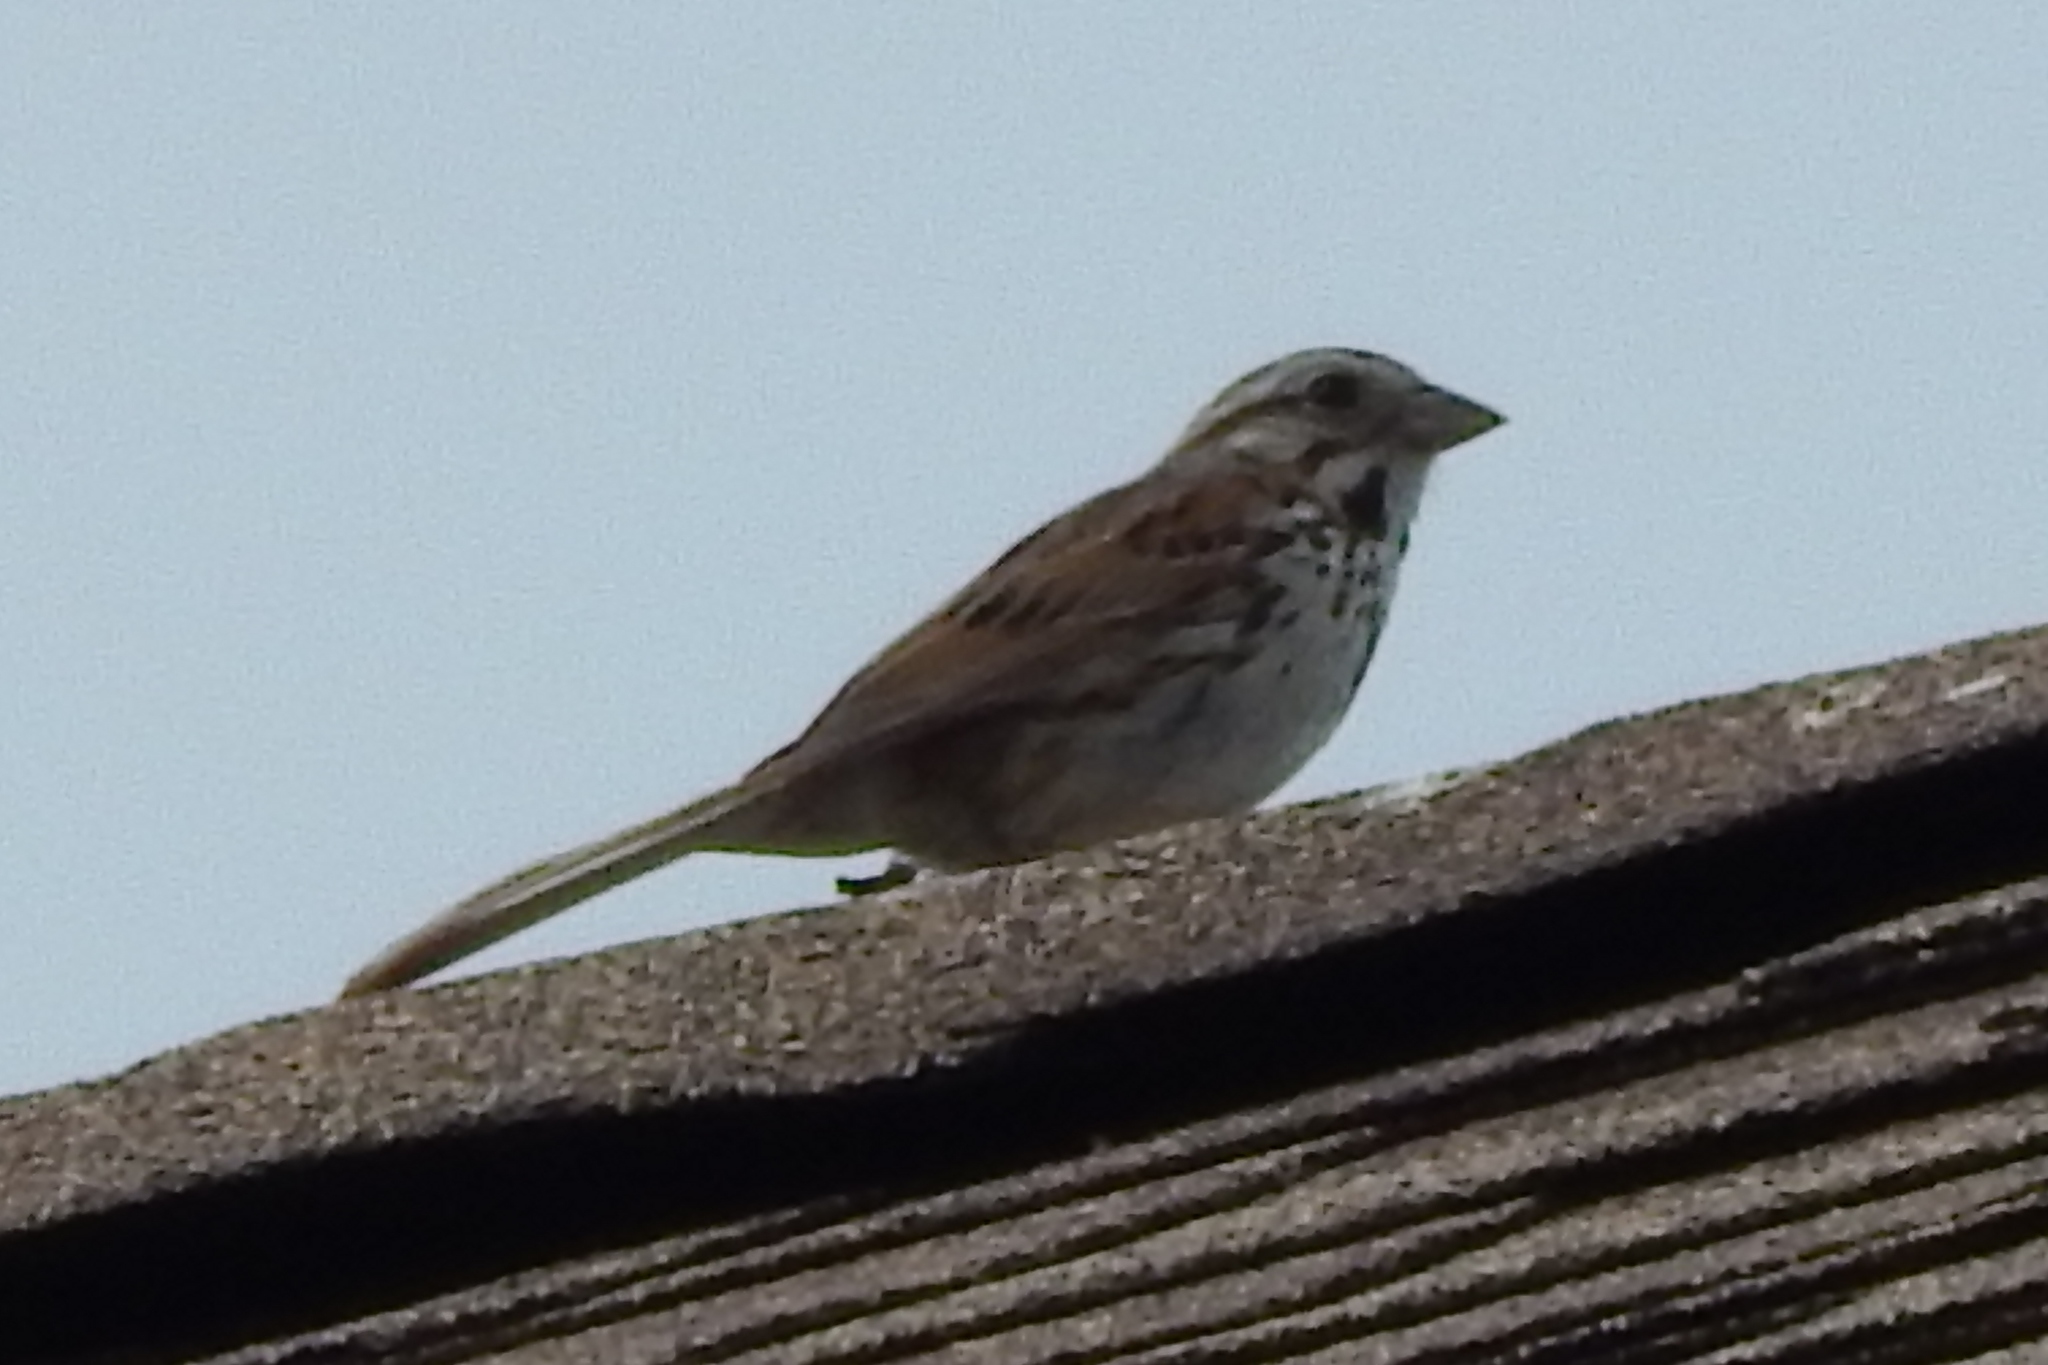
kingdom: Animalia
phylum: Chordata
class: Aves
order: Passeriformes
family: Passerellidae
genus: Melospiza
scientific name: Melospiza melodia
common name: Song sparrow
